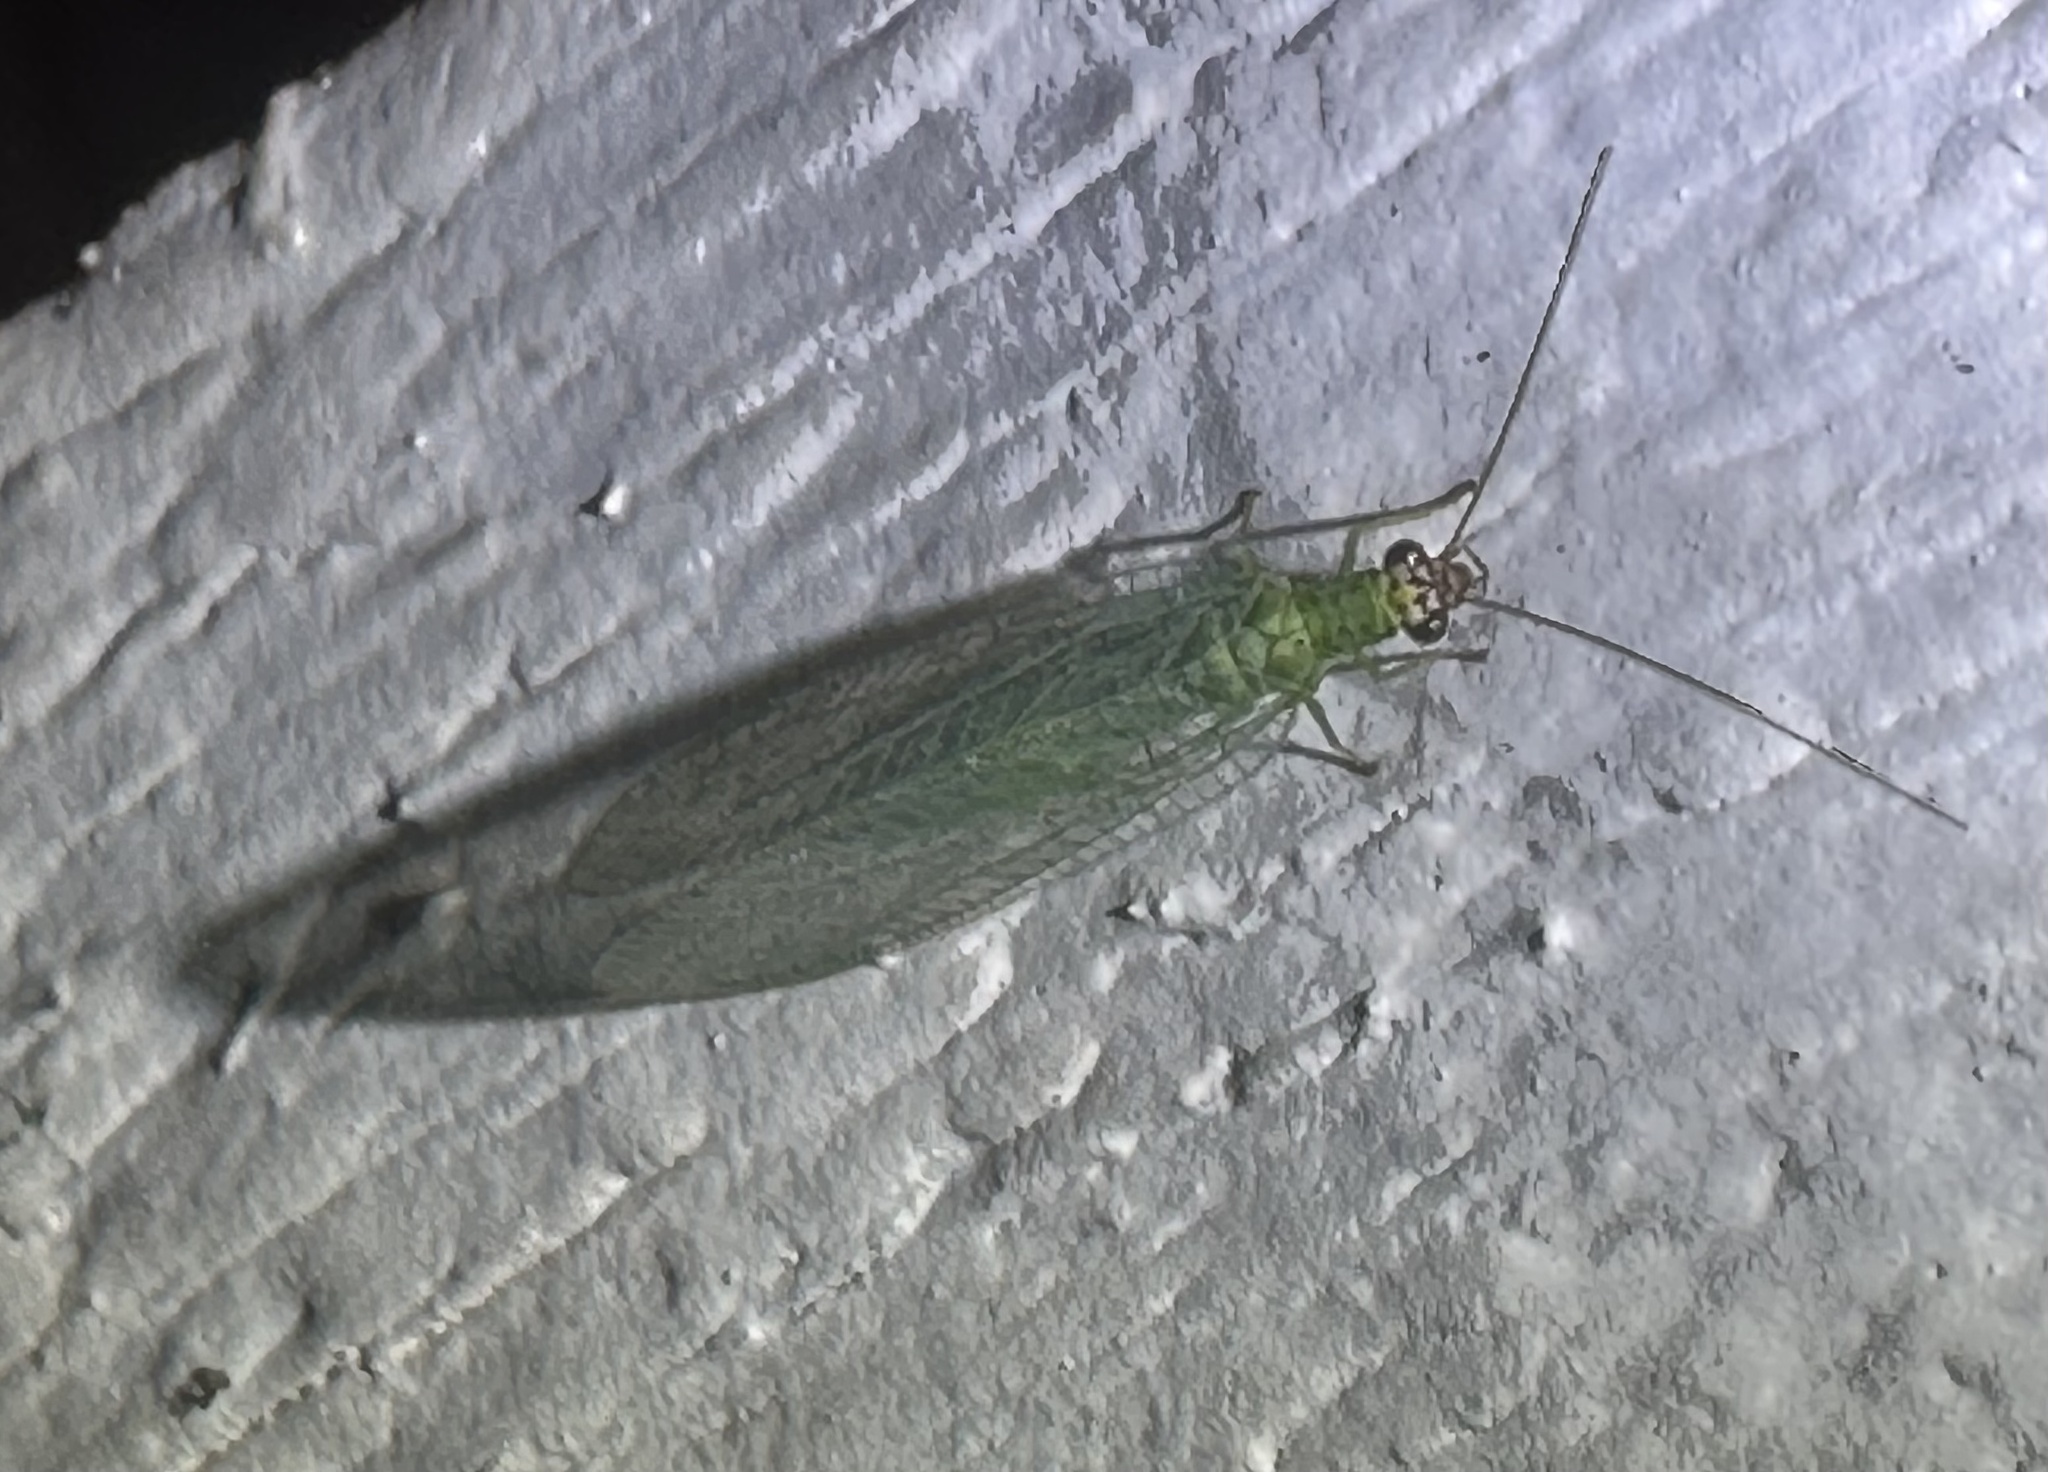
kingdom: Animalia
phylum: Arthropoda
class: Insecta
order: Neuroptera
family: Chrysopidae
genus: Chrysopa
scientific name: Chrysopa oculata
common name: Golden-eyed lacewing
